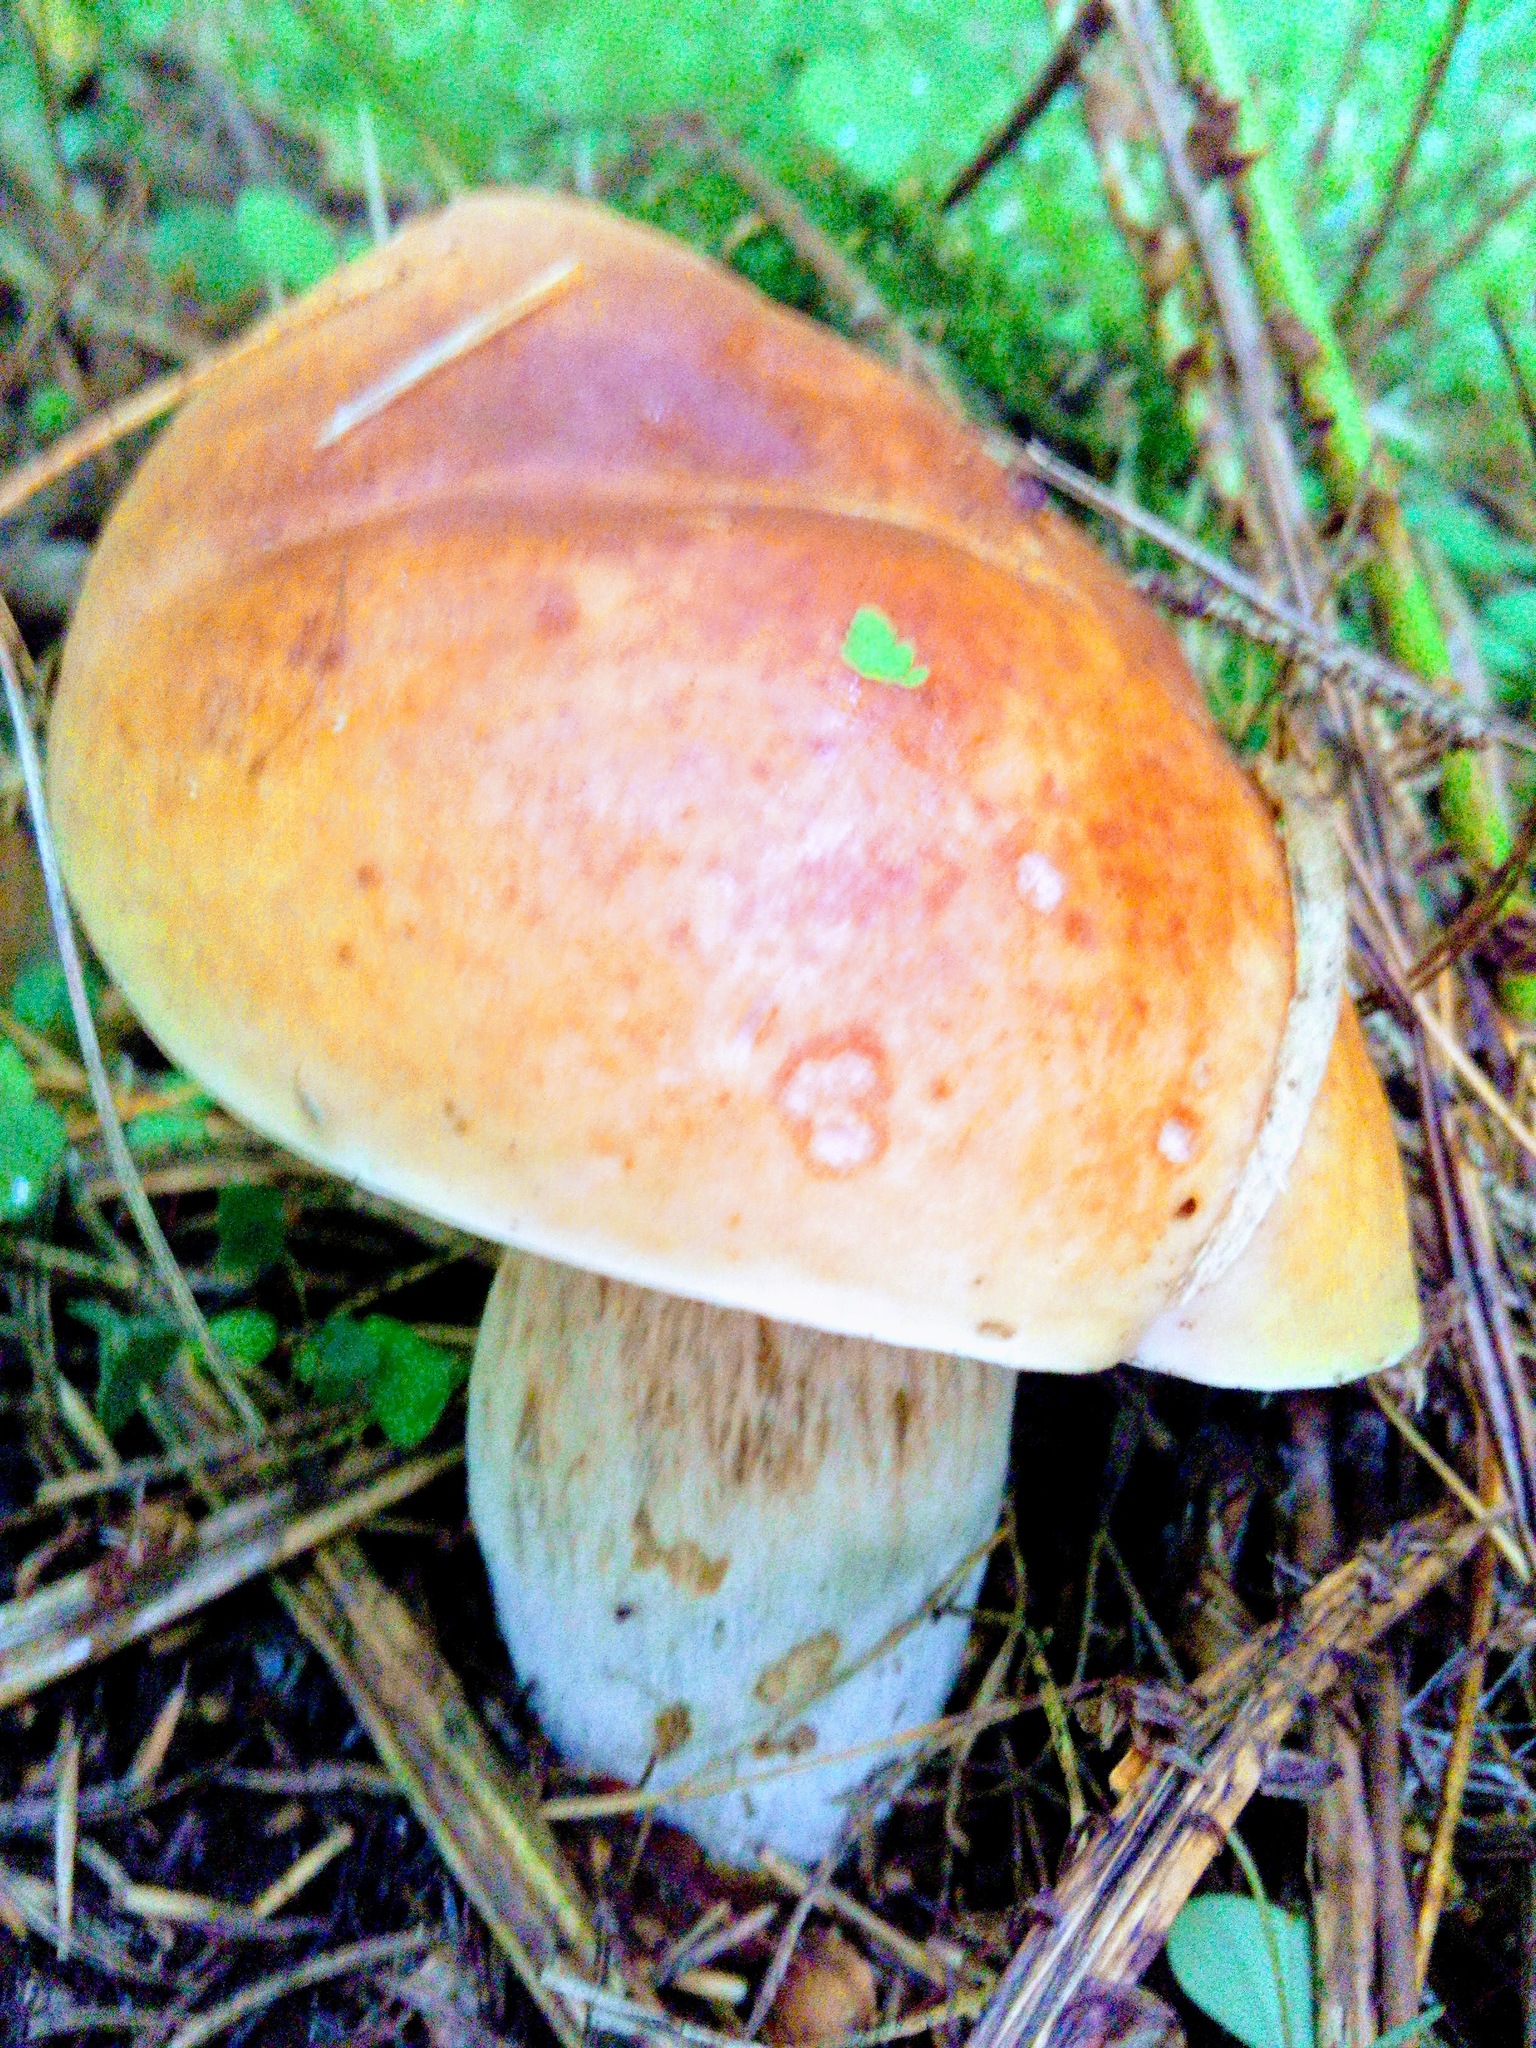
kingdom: Fungi
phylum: Basidiomycota
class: Agaricomycetes
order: Boletales
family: Boletaceae
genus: Boletus
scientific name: Boletus edulis
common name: Cep
